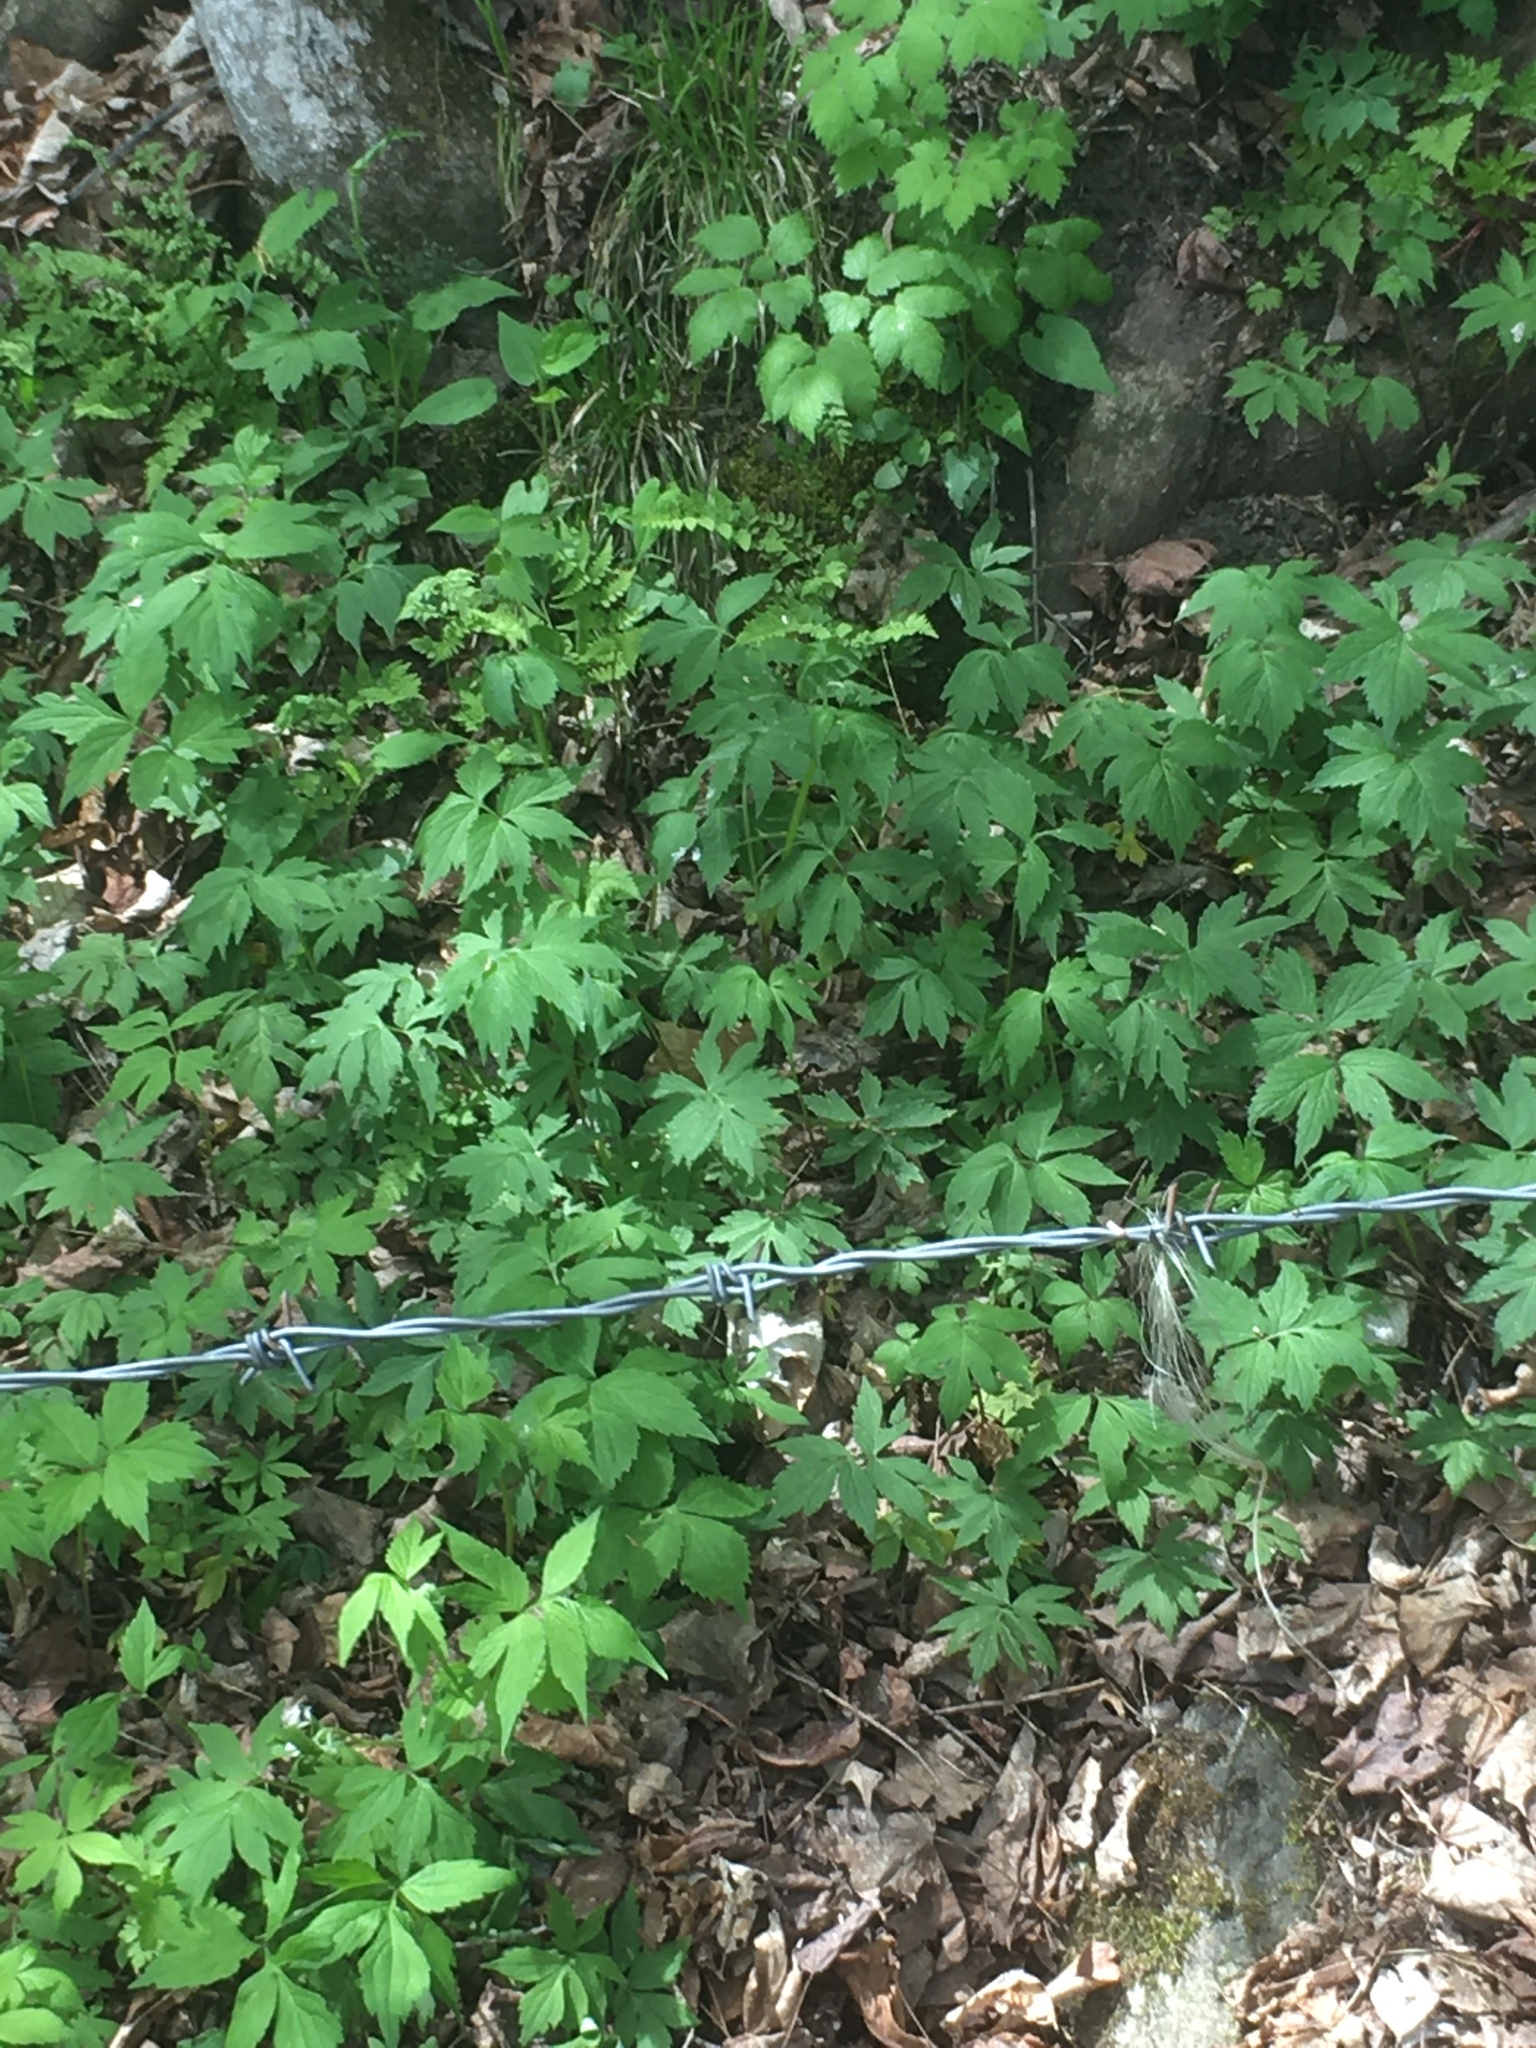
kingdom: Plantae
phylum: Tracheophyta
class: Magnoliopsida
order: Boraginales
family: Hydrophyllaceae
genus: Hydrophyllum
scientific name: Hydrophyllum virginianum
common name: Virginia waterleaf
